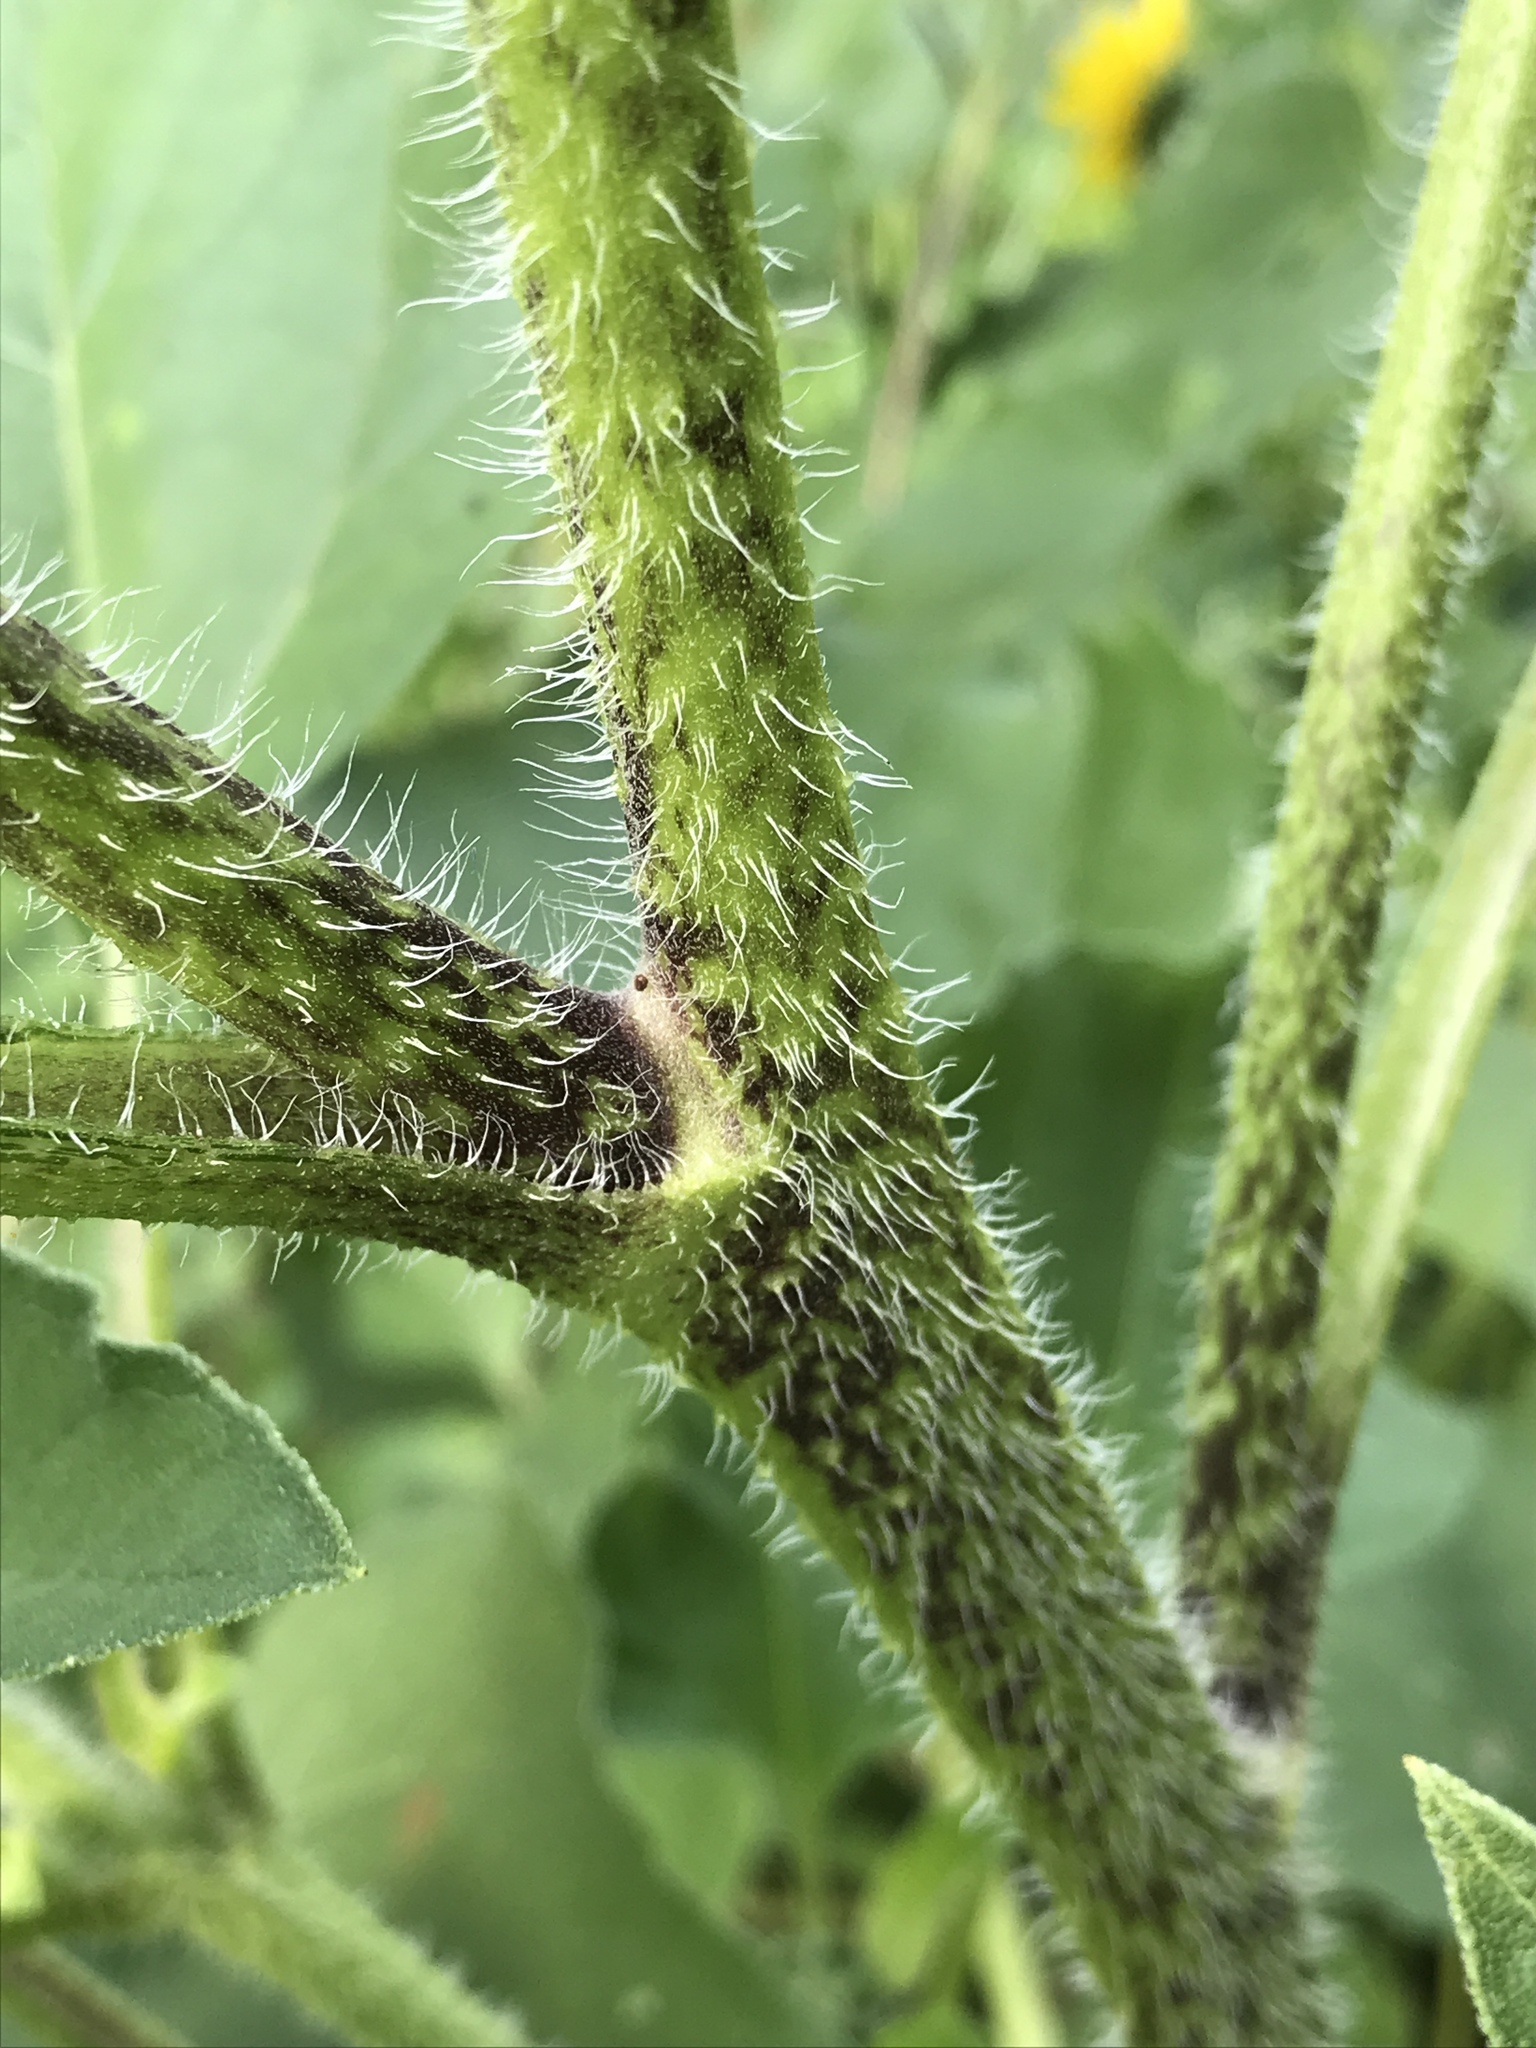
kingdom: Plantae
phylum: Tracheophyta
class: Magnoliopsida
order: Asterales
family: Asteraceae
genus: Helianthus
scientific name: Helianthus annuus
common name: Sunflower
